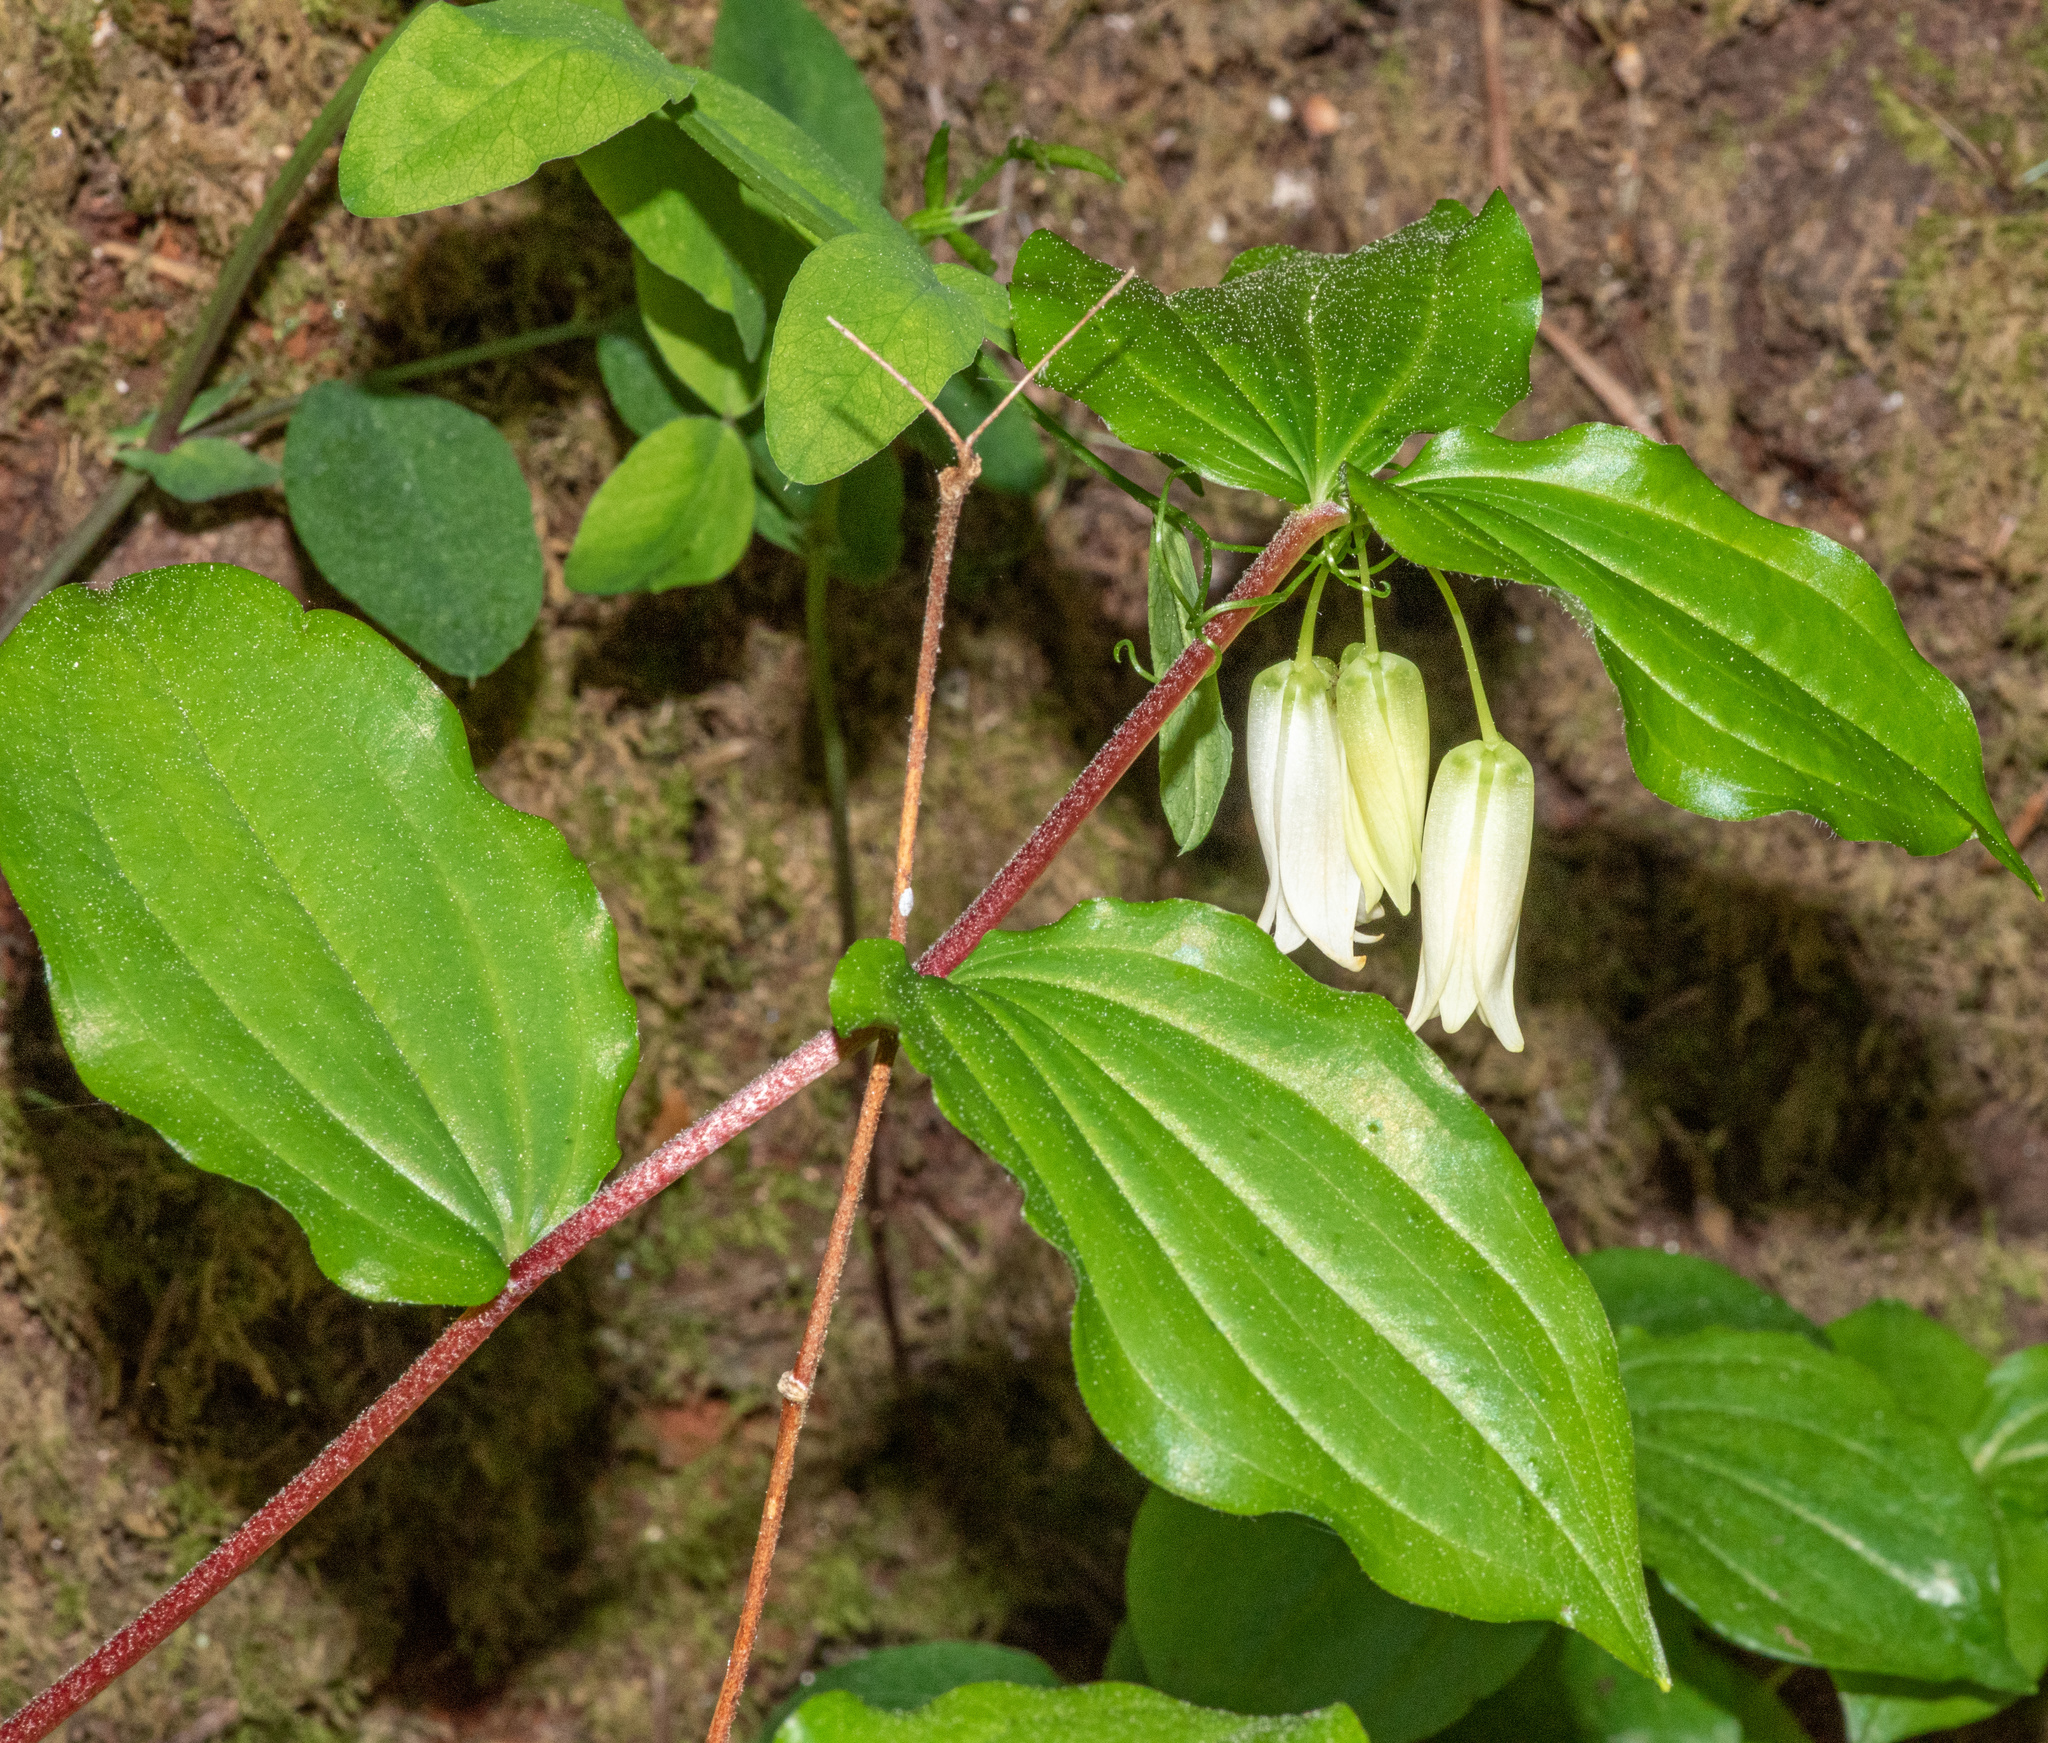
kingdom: Plantae
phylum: Tracheophyta
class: Liliopsida
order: Liliales
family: Liliaceae
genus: Prosartes
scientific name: Prosartes smithii
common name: Fairy-lantern
